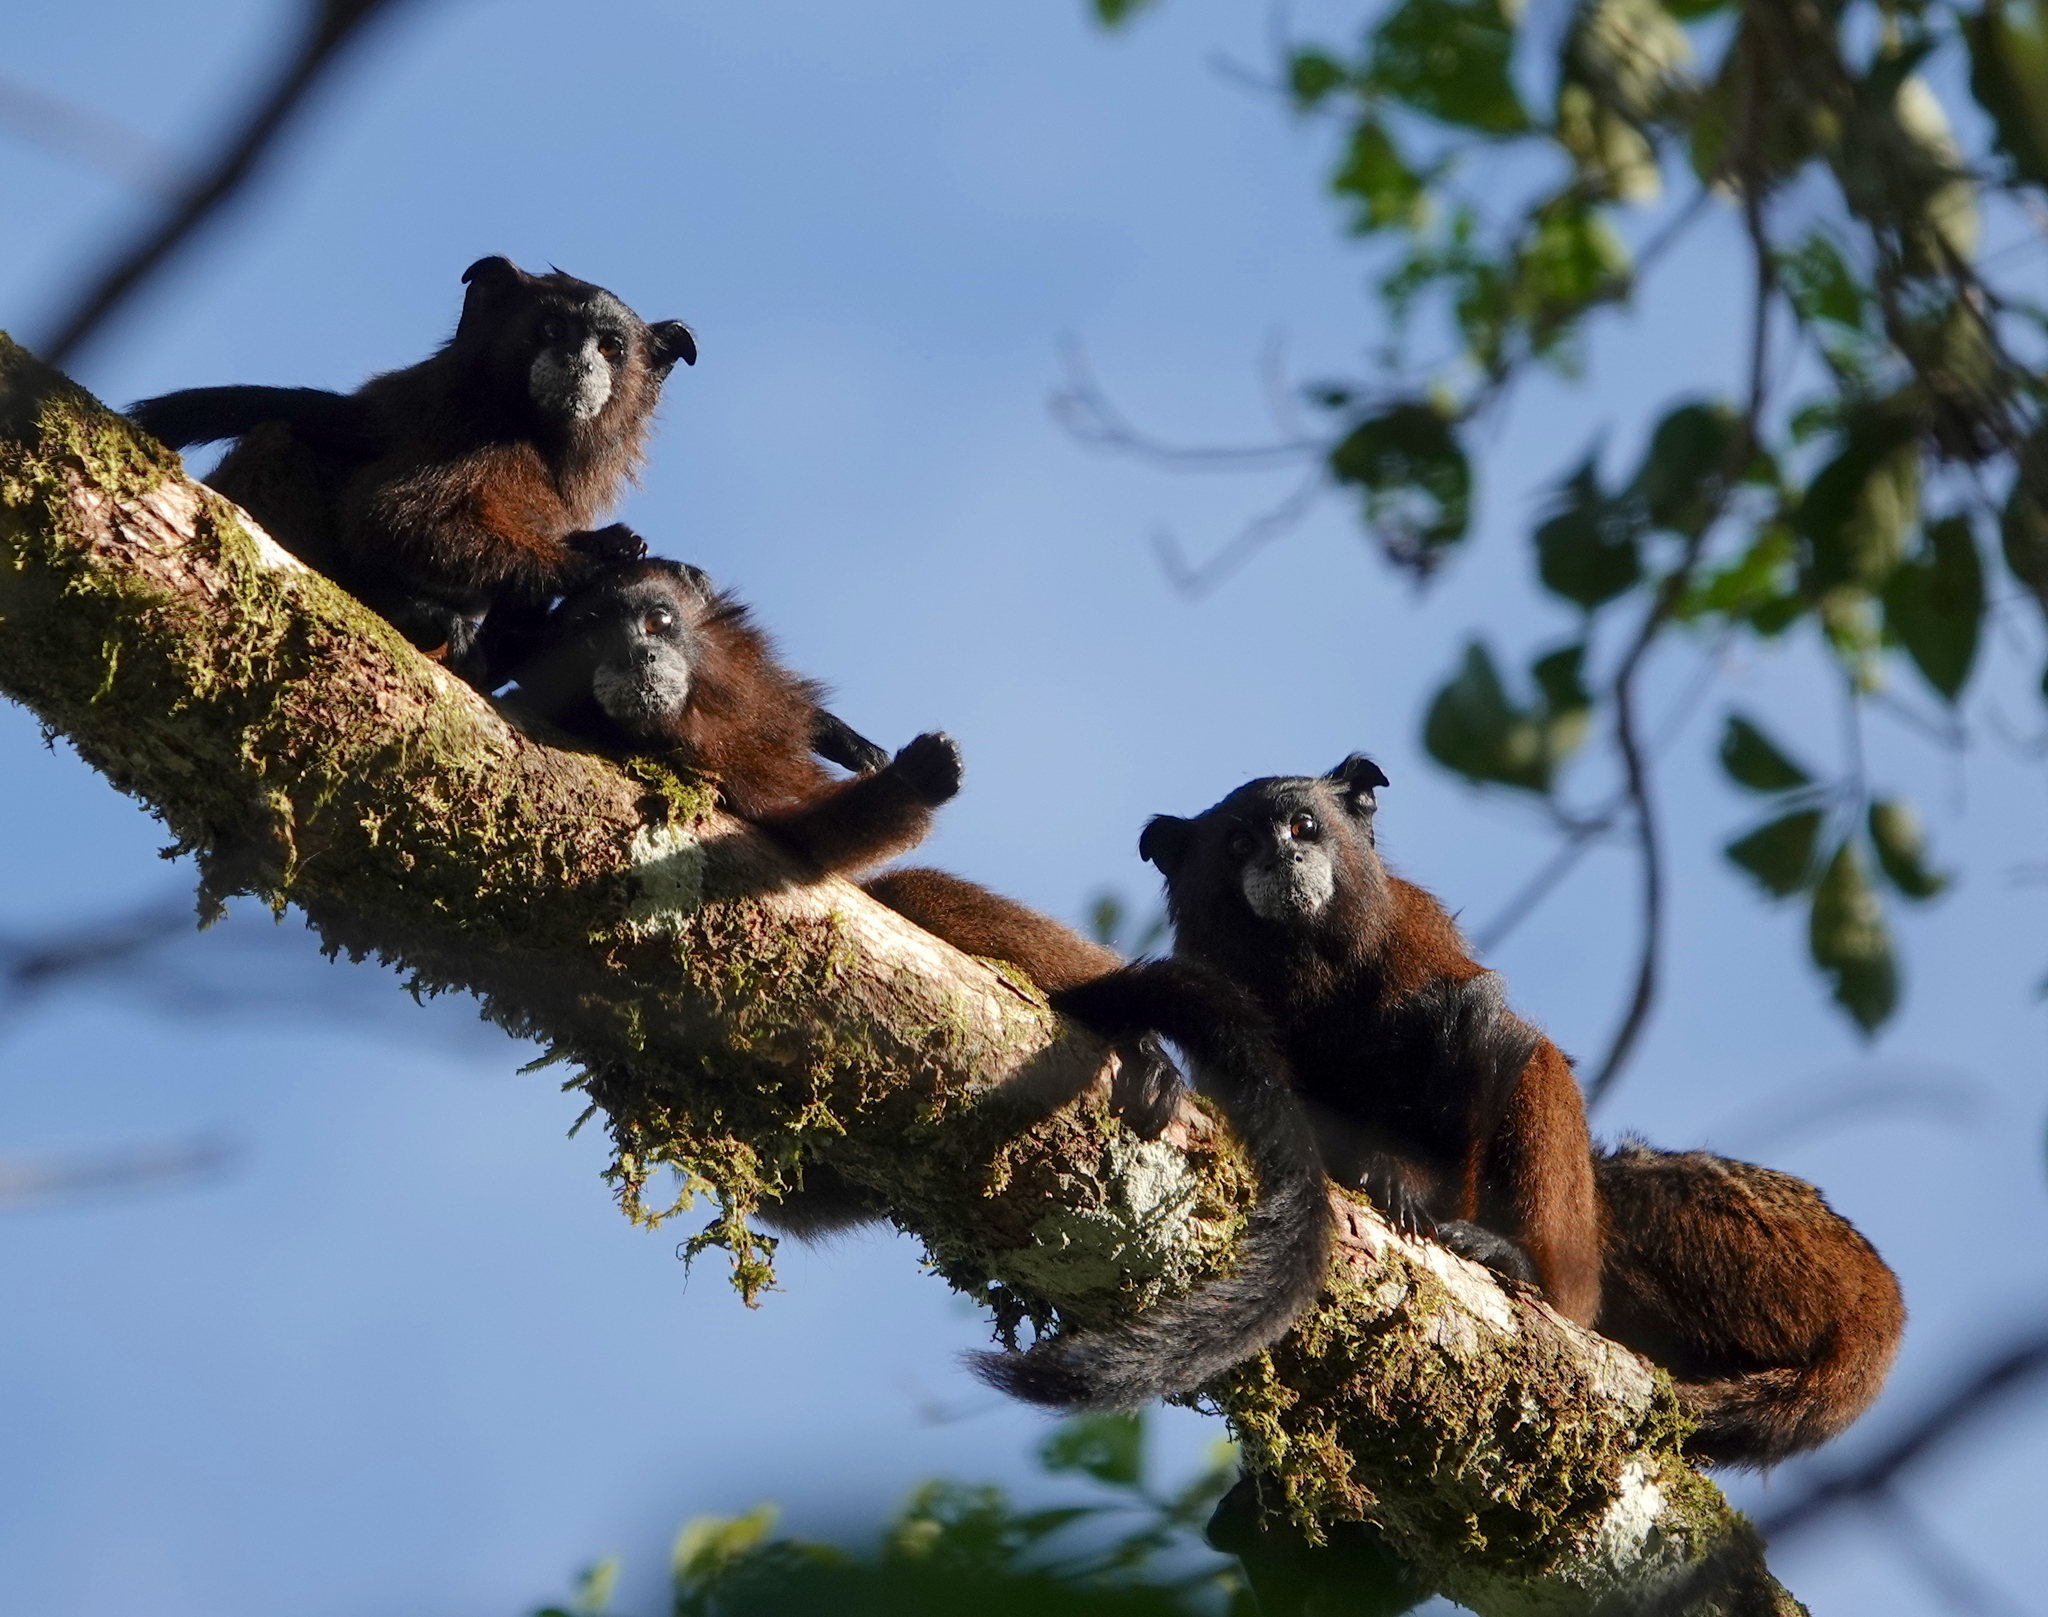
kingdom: Animalia
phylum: Chordata
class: Mammalia
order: Primates
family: Callitrichidae
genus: Leontocebus
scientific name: Leontocebus fuscus
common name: Lesson's saddle-back tamarin
